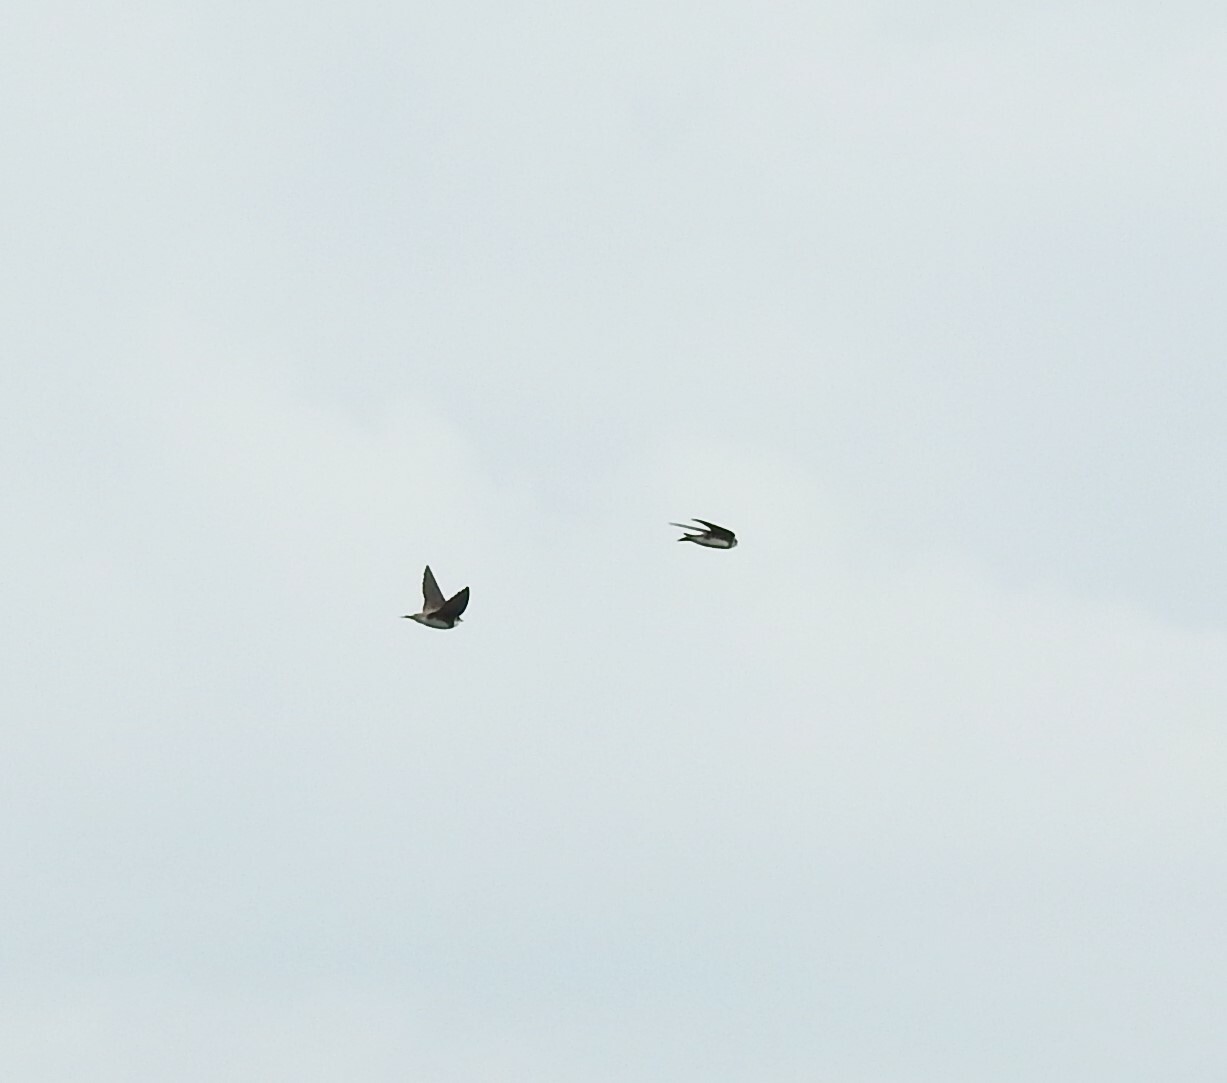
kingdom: Animalia
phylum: Chordata
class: Aves
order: Passeriformes
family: Hirundinidae
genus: Riparia
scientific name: Riparia riparia
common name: Sand martin
